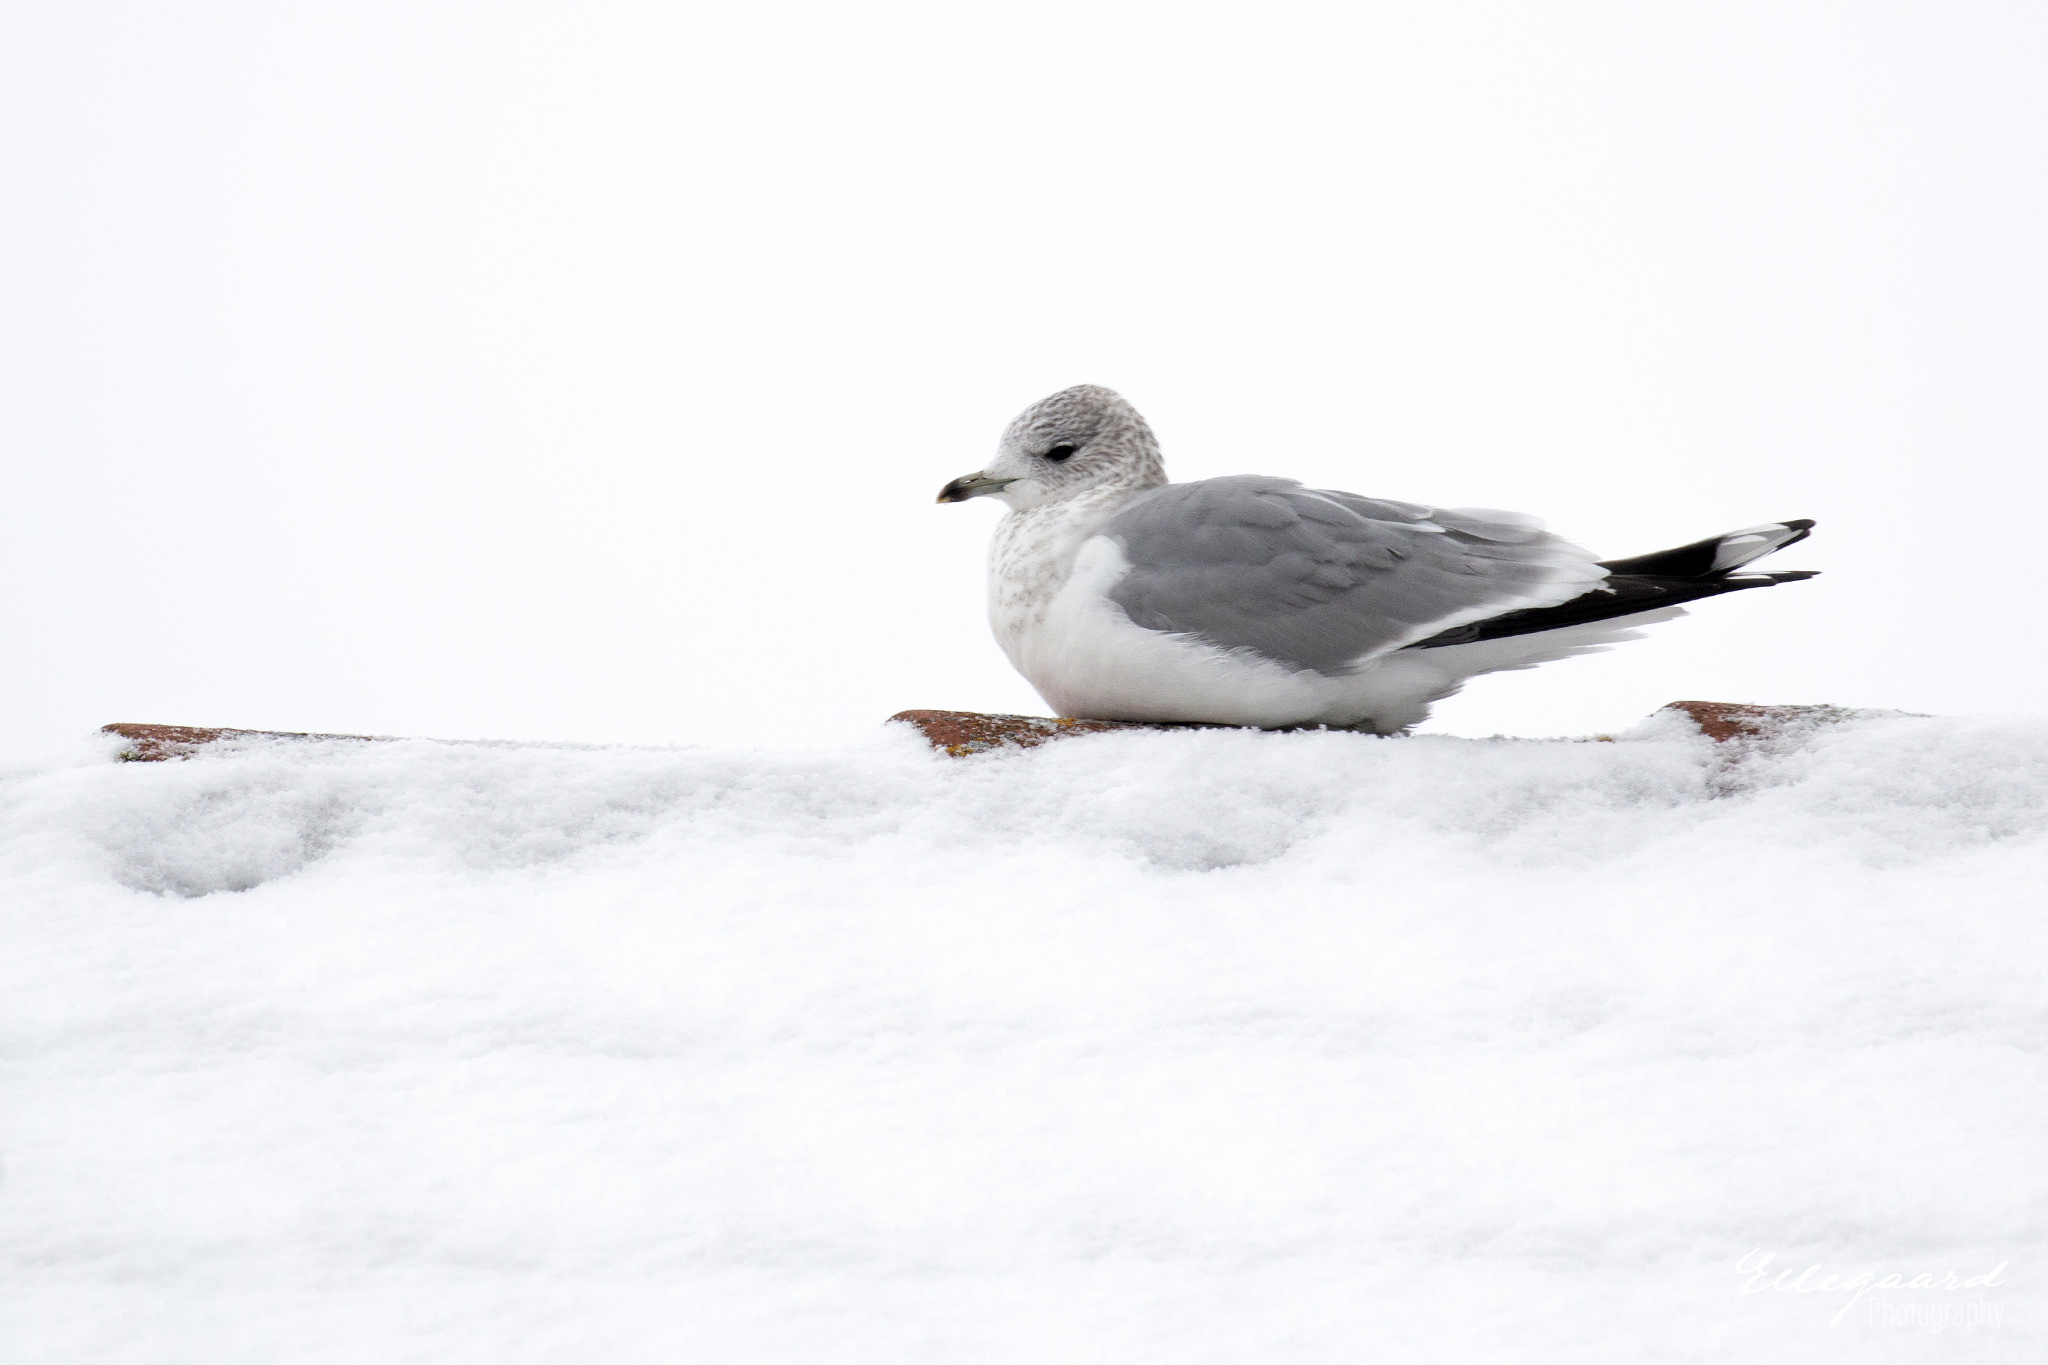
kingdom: Animalia
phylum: Chordata
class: Aves
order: Charadriiformes
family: Laridae
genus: Larus
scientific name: Larus canus
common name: Mew gull
